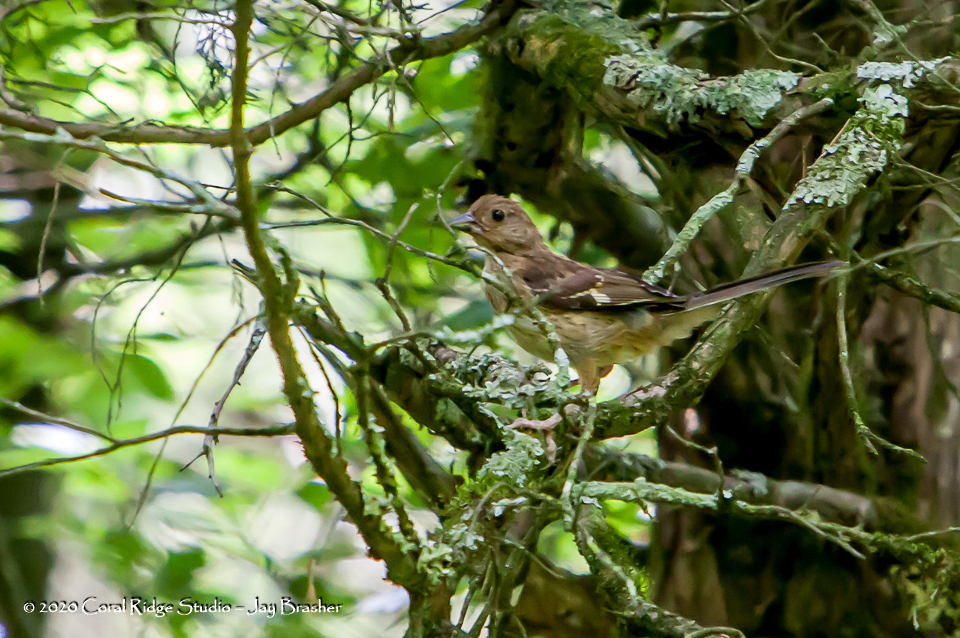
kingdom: Animalia
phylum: Chordata
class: Aves
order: Passeriformes
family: Passerellidae
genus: Pipilo
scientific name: Pipilo erythrophthalmus
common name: Eastern towhee
